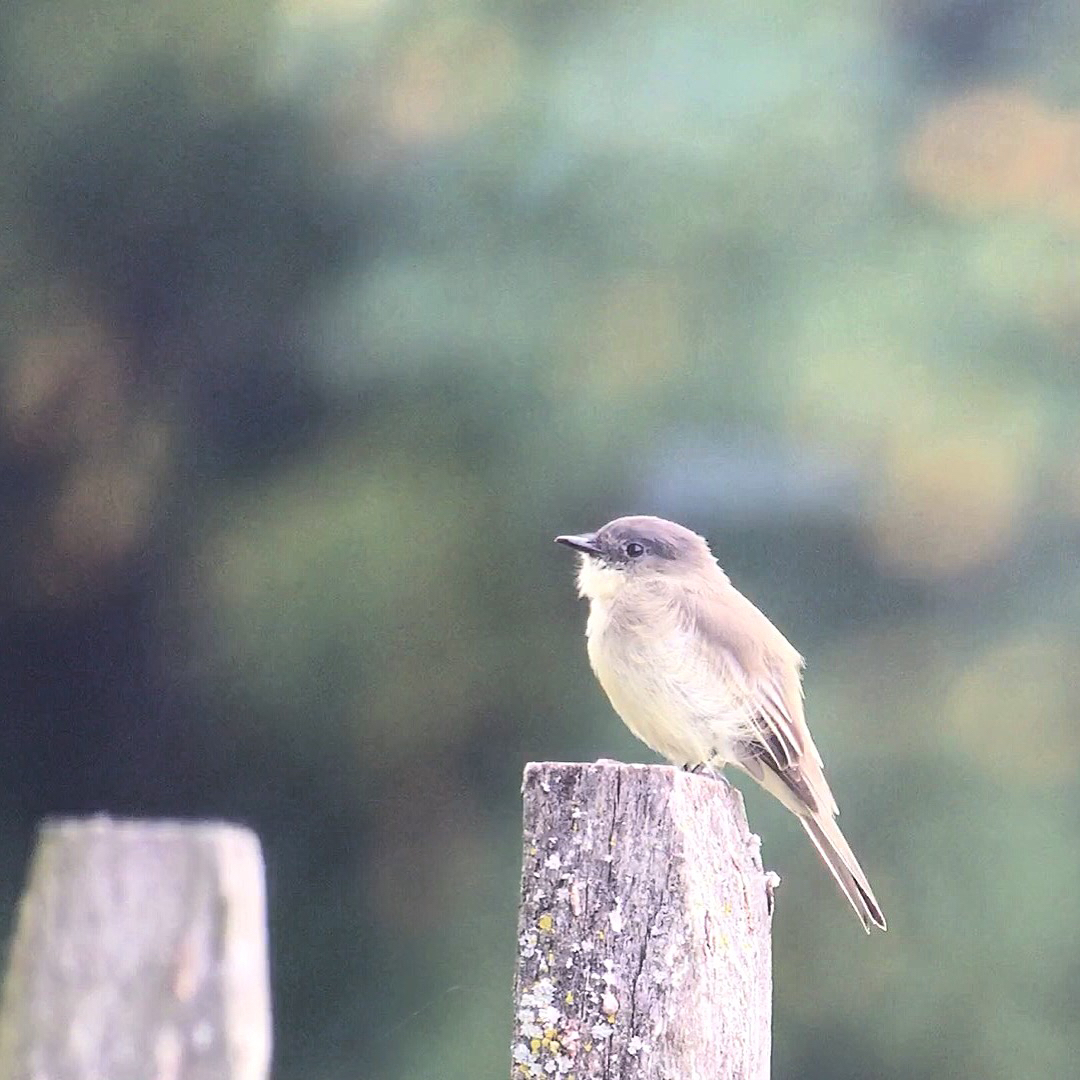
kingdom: Animalia
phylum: Chordata
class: Aves
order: Passeriformes
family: Tyrannidae
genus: Sayornis
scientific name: Sayornis phoebe
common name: Eastern phoebe
